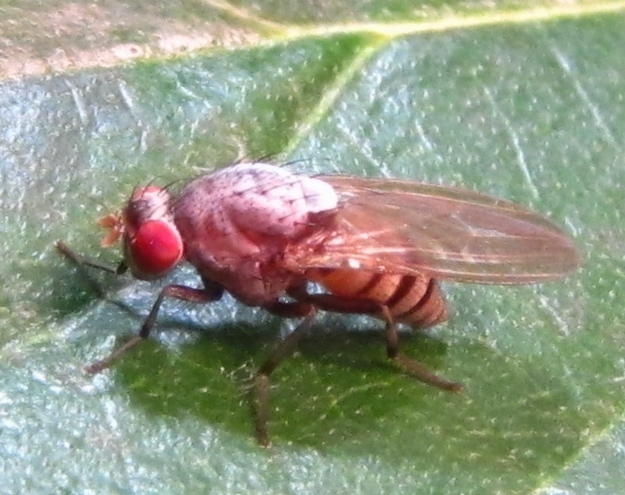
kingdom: Animalia
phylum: Arthropoda
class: Insecta
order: Diptera
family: Lauxaniidae
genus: Minettia
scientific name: Minettia magna
